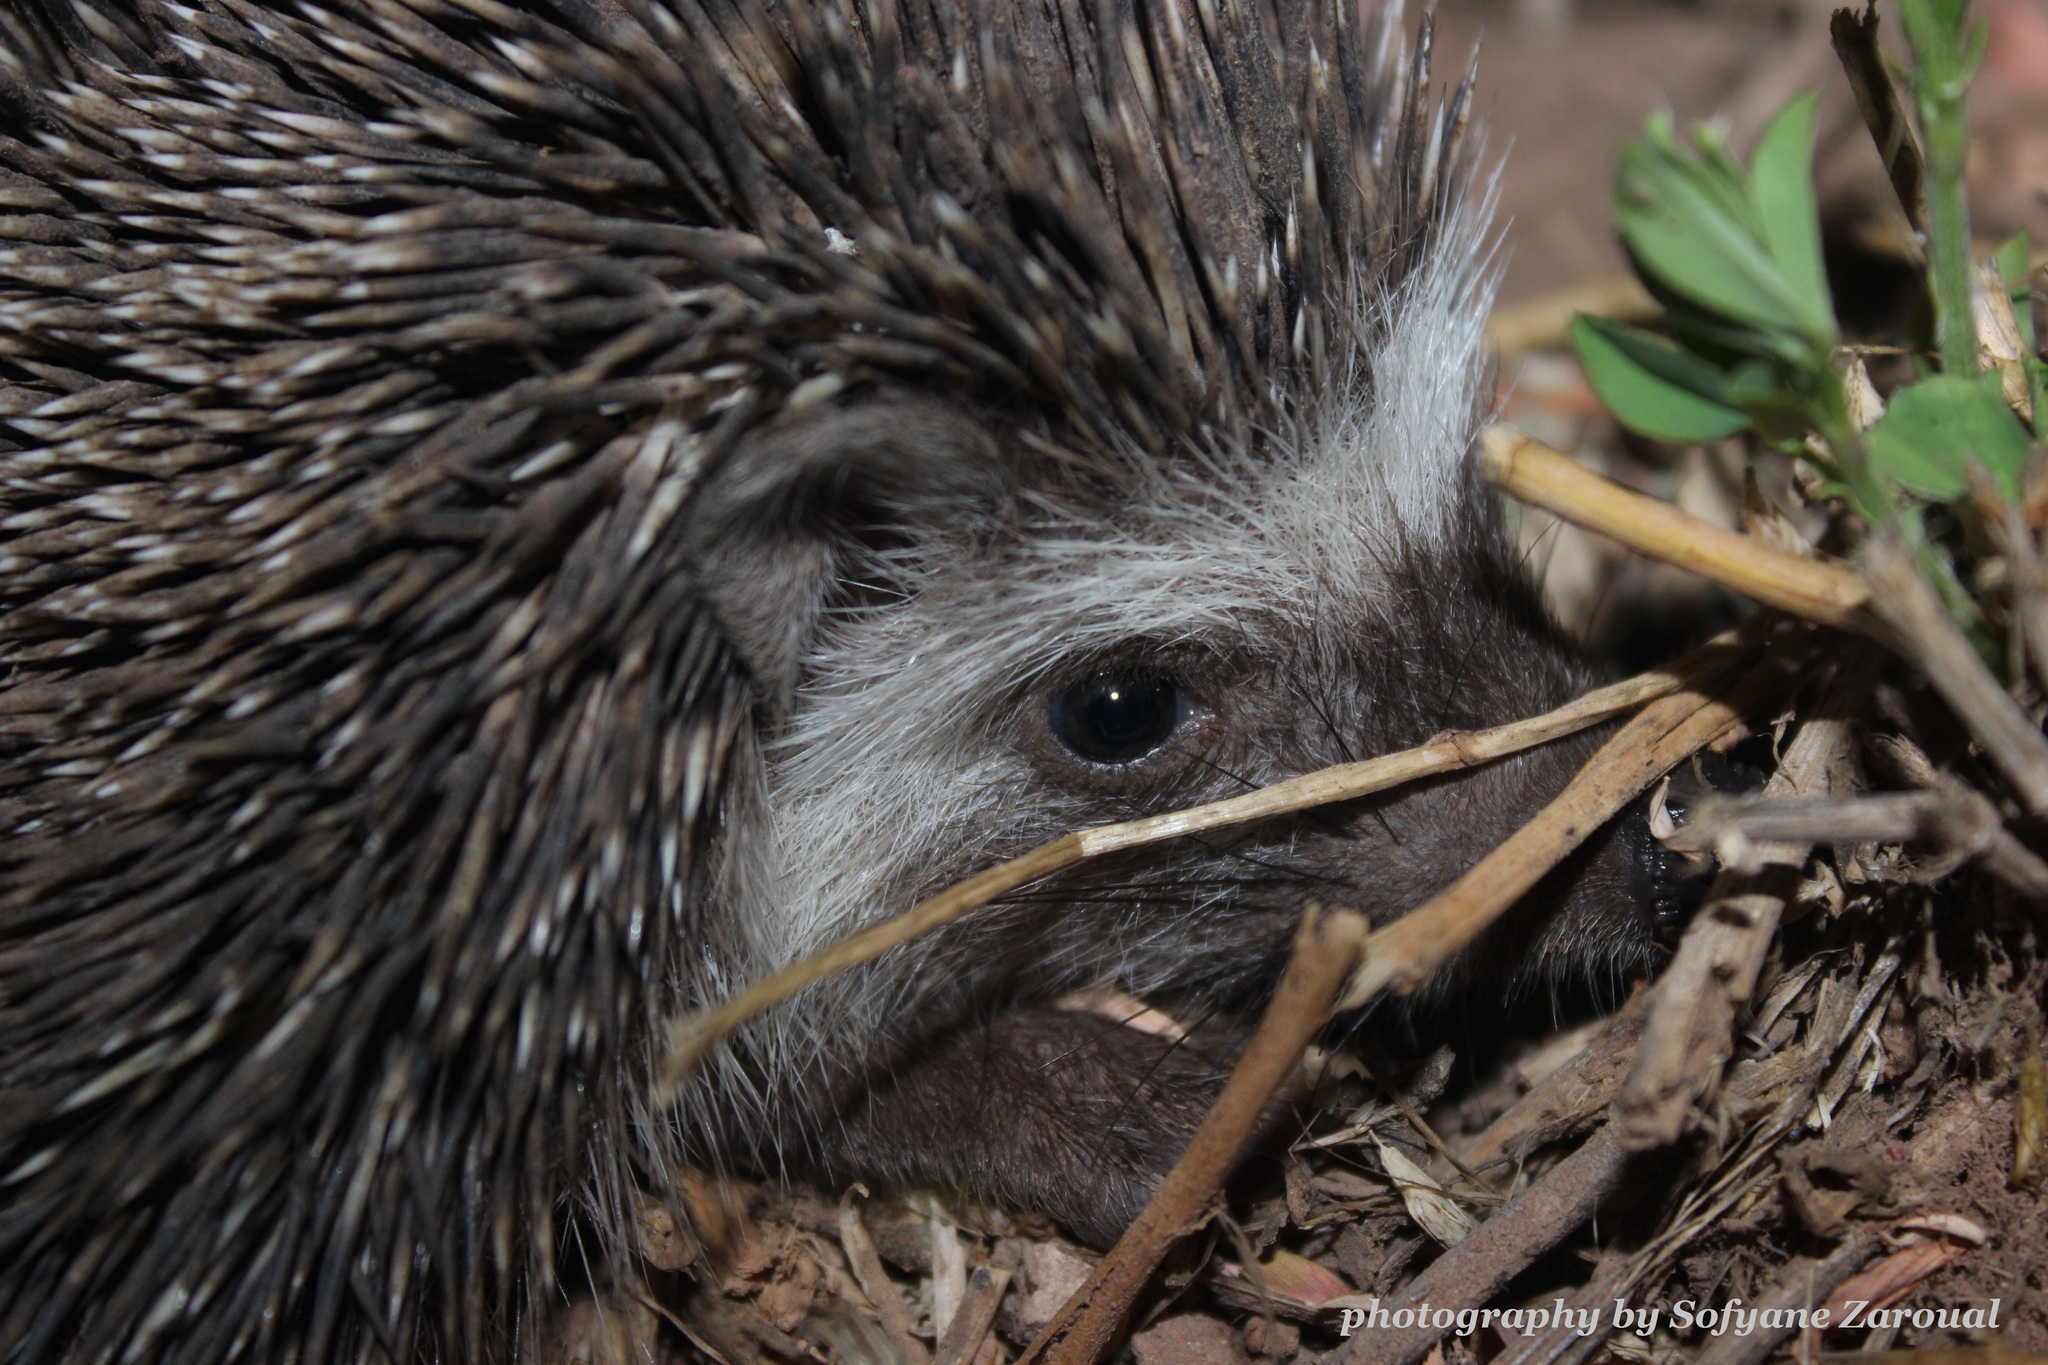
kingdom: Animalia
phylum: Chordata
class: Mammalia
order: Erinaceomorpha
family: Erinaceidae
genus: Atelerix
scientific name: Atelerix algirus
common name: North african hedgehog
